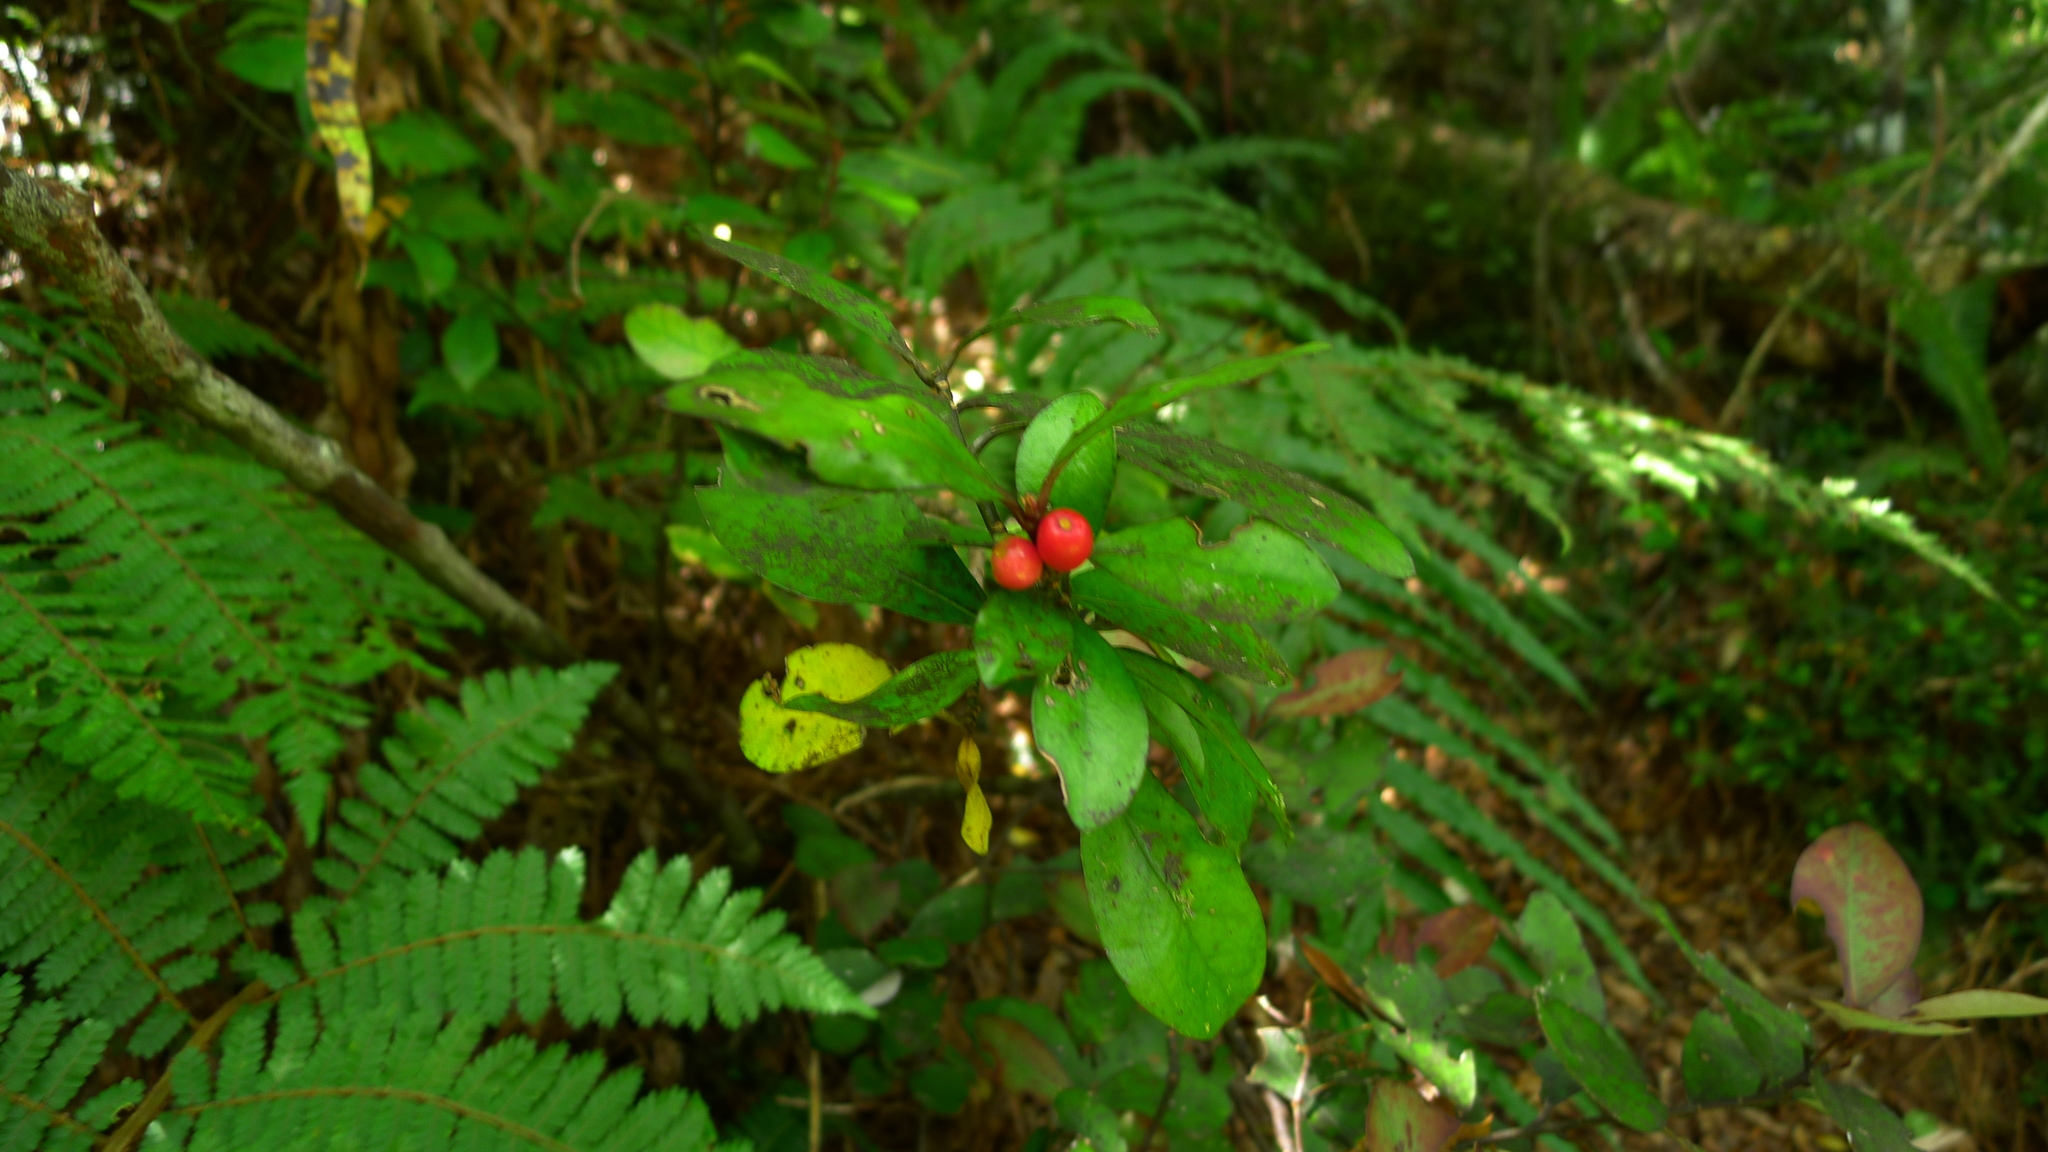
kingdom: Plantae
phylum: Tracheophyta
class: Magnoliopsida
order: Asterales
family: Alseuosmiaceae
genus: Alseuosmia
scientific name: Alseuosmia pusilla
